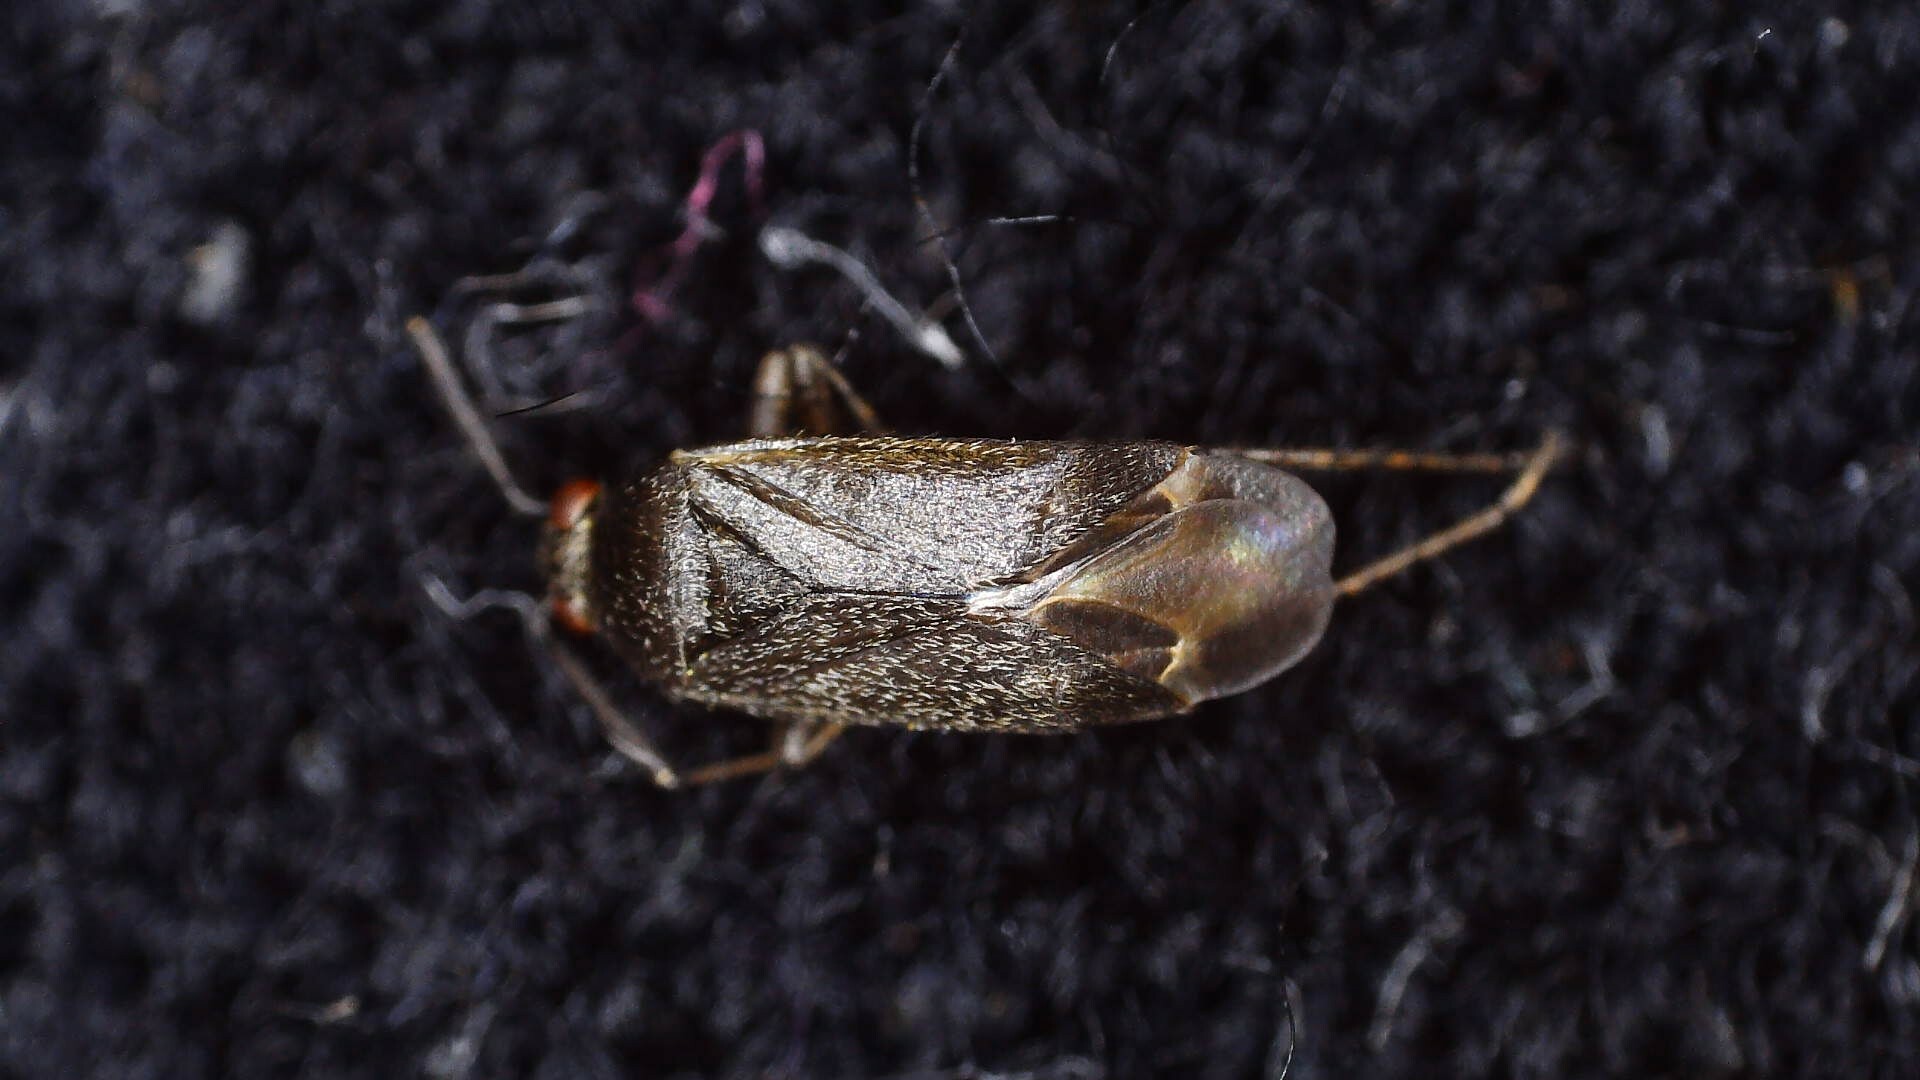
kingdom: Animalia
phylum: Arthropoda
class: Insecta
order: Hemiptera
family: Miridae
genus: Psallus
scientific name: Psallus aethiops
